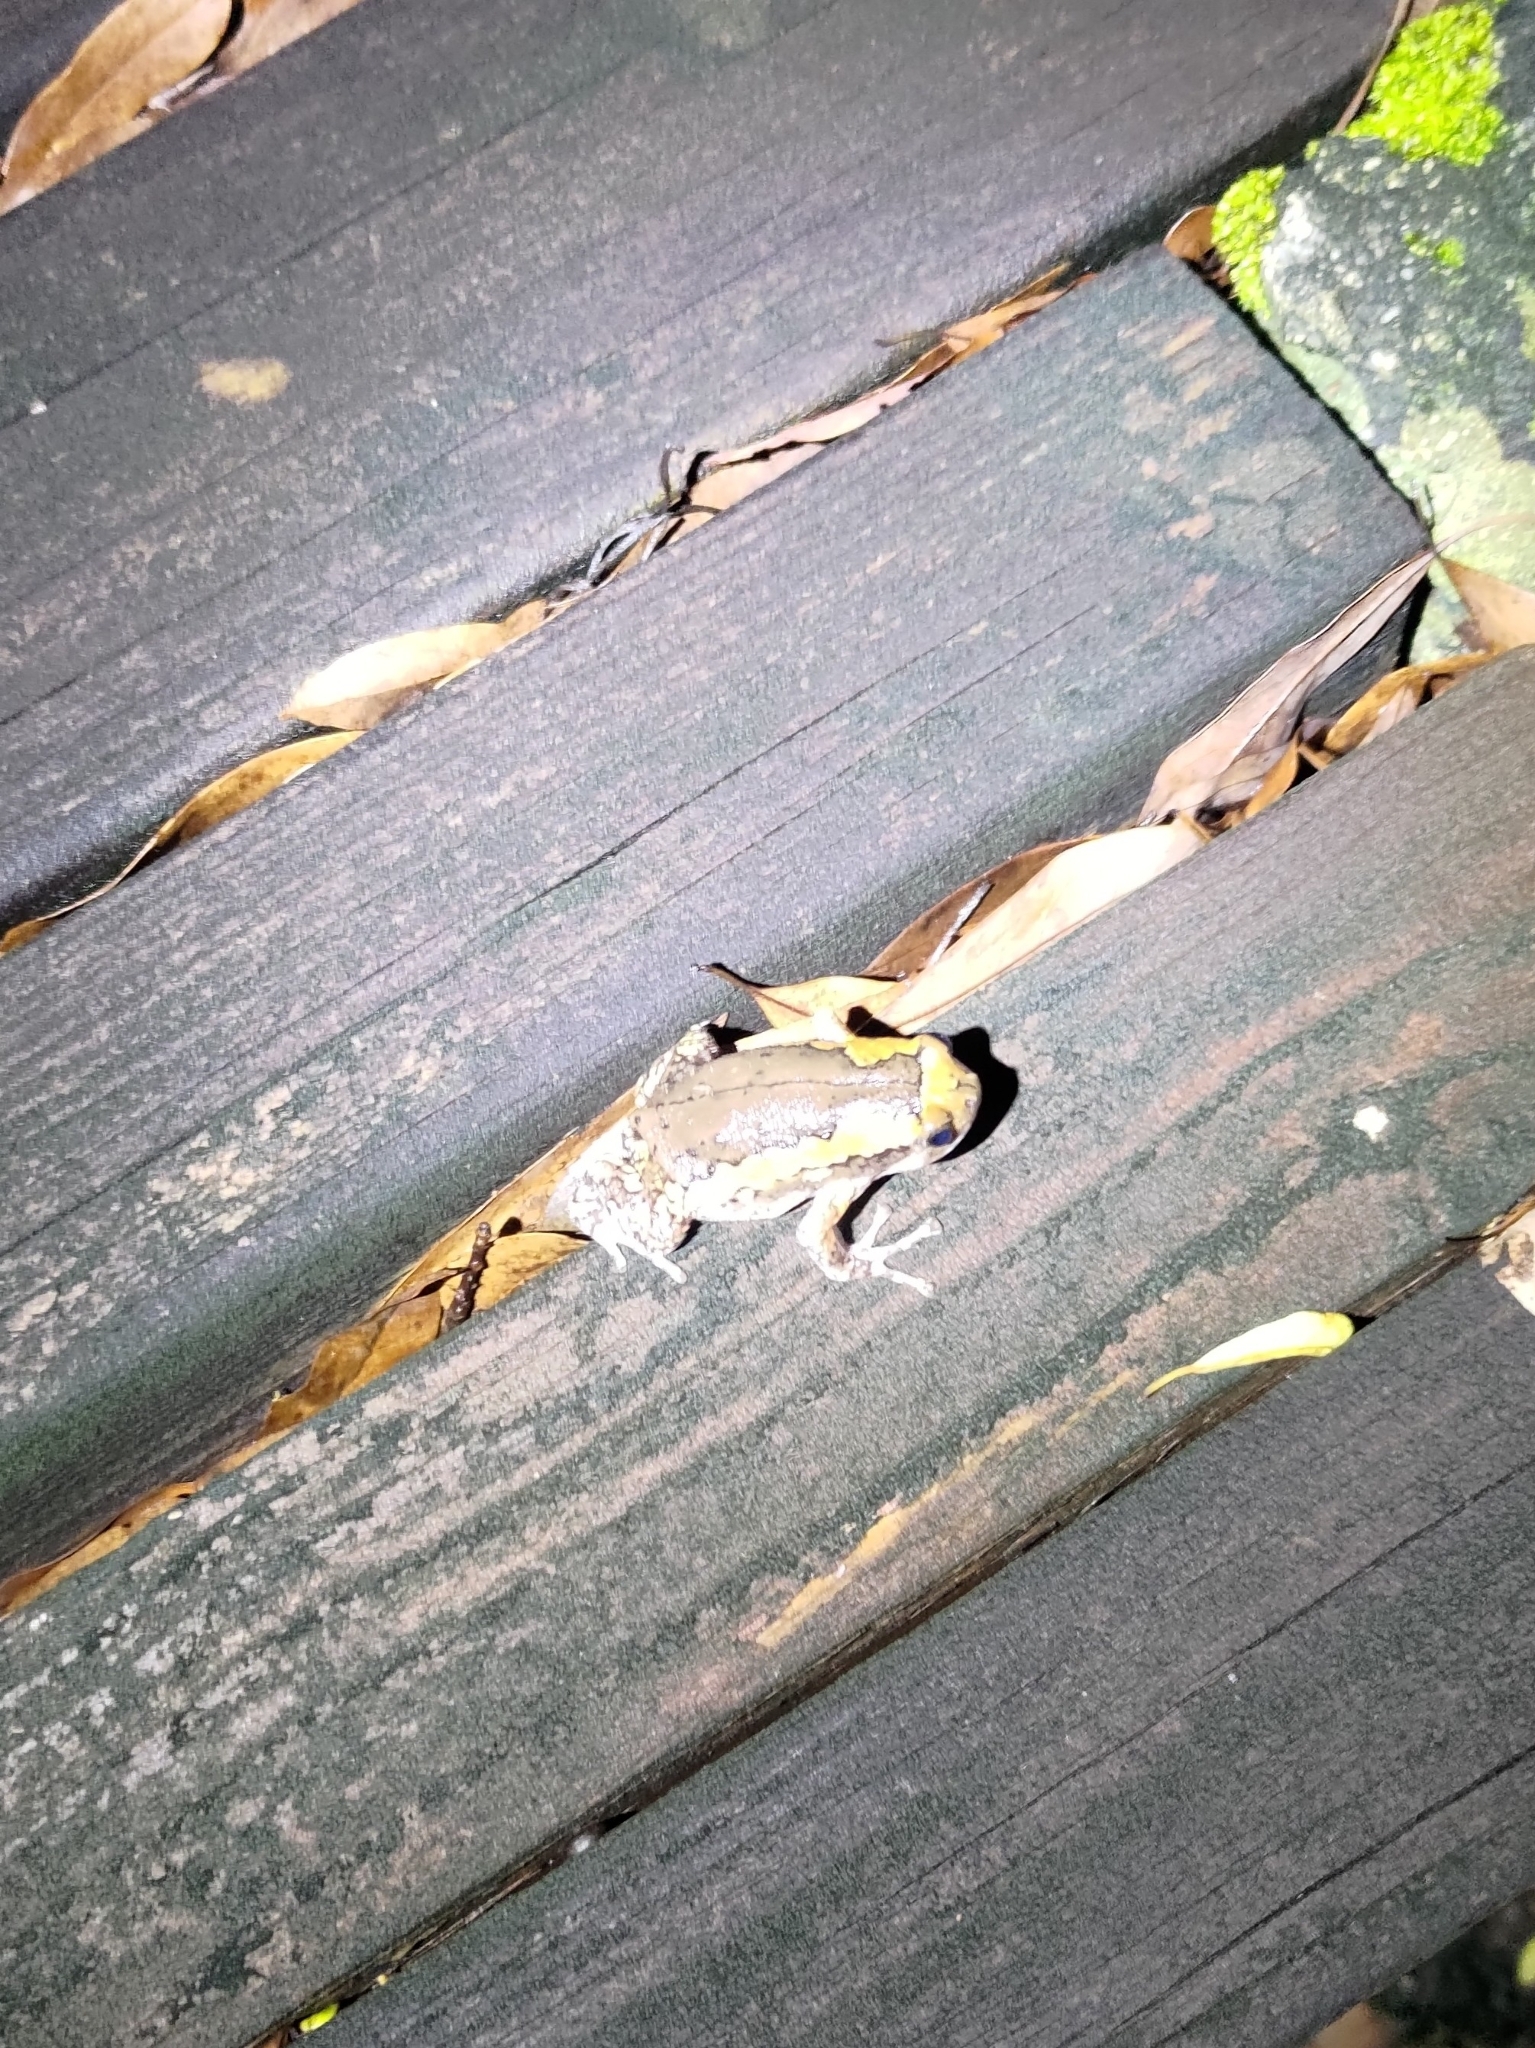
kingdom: Animalia
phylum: Chordata
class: Amphibia
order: Anura
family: Microhylidae
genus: Kaloula
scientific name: Kaloula pulchra
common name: Common,banded bullfrog
